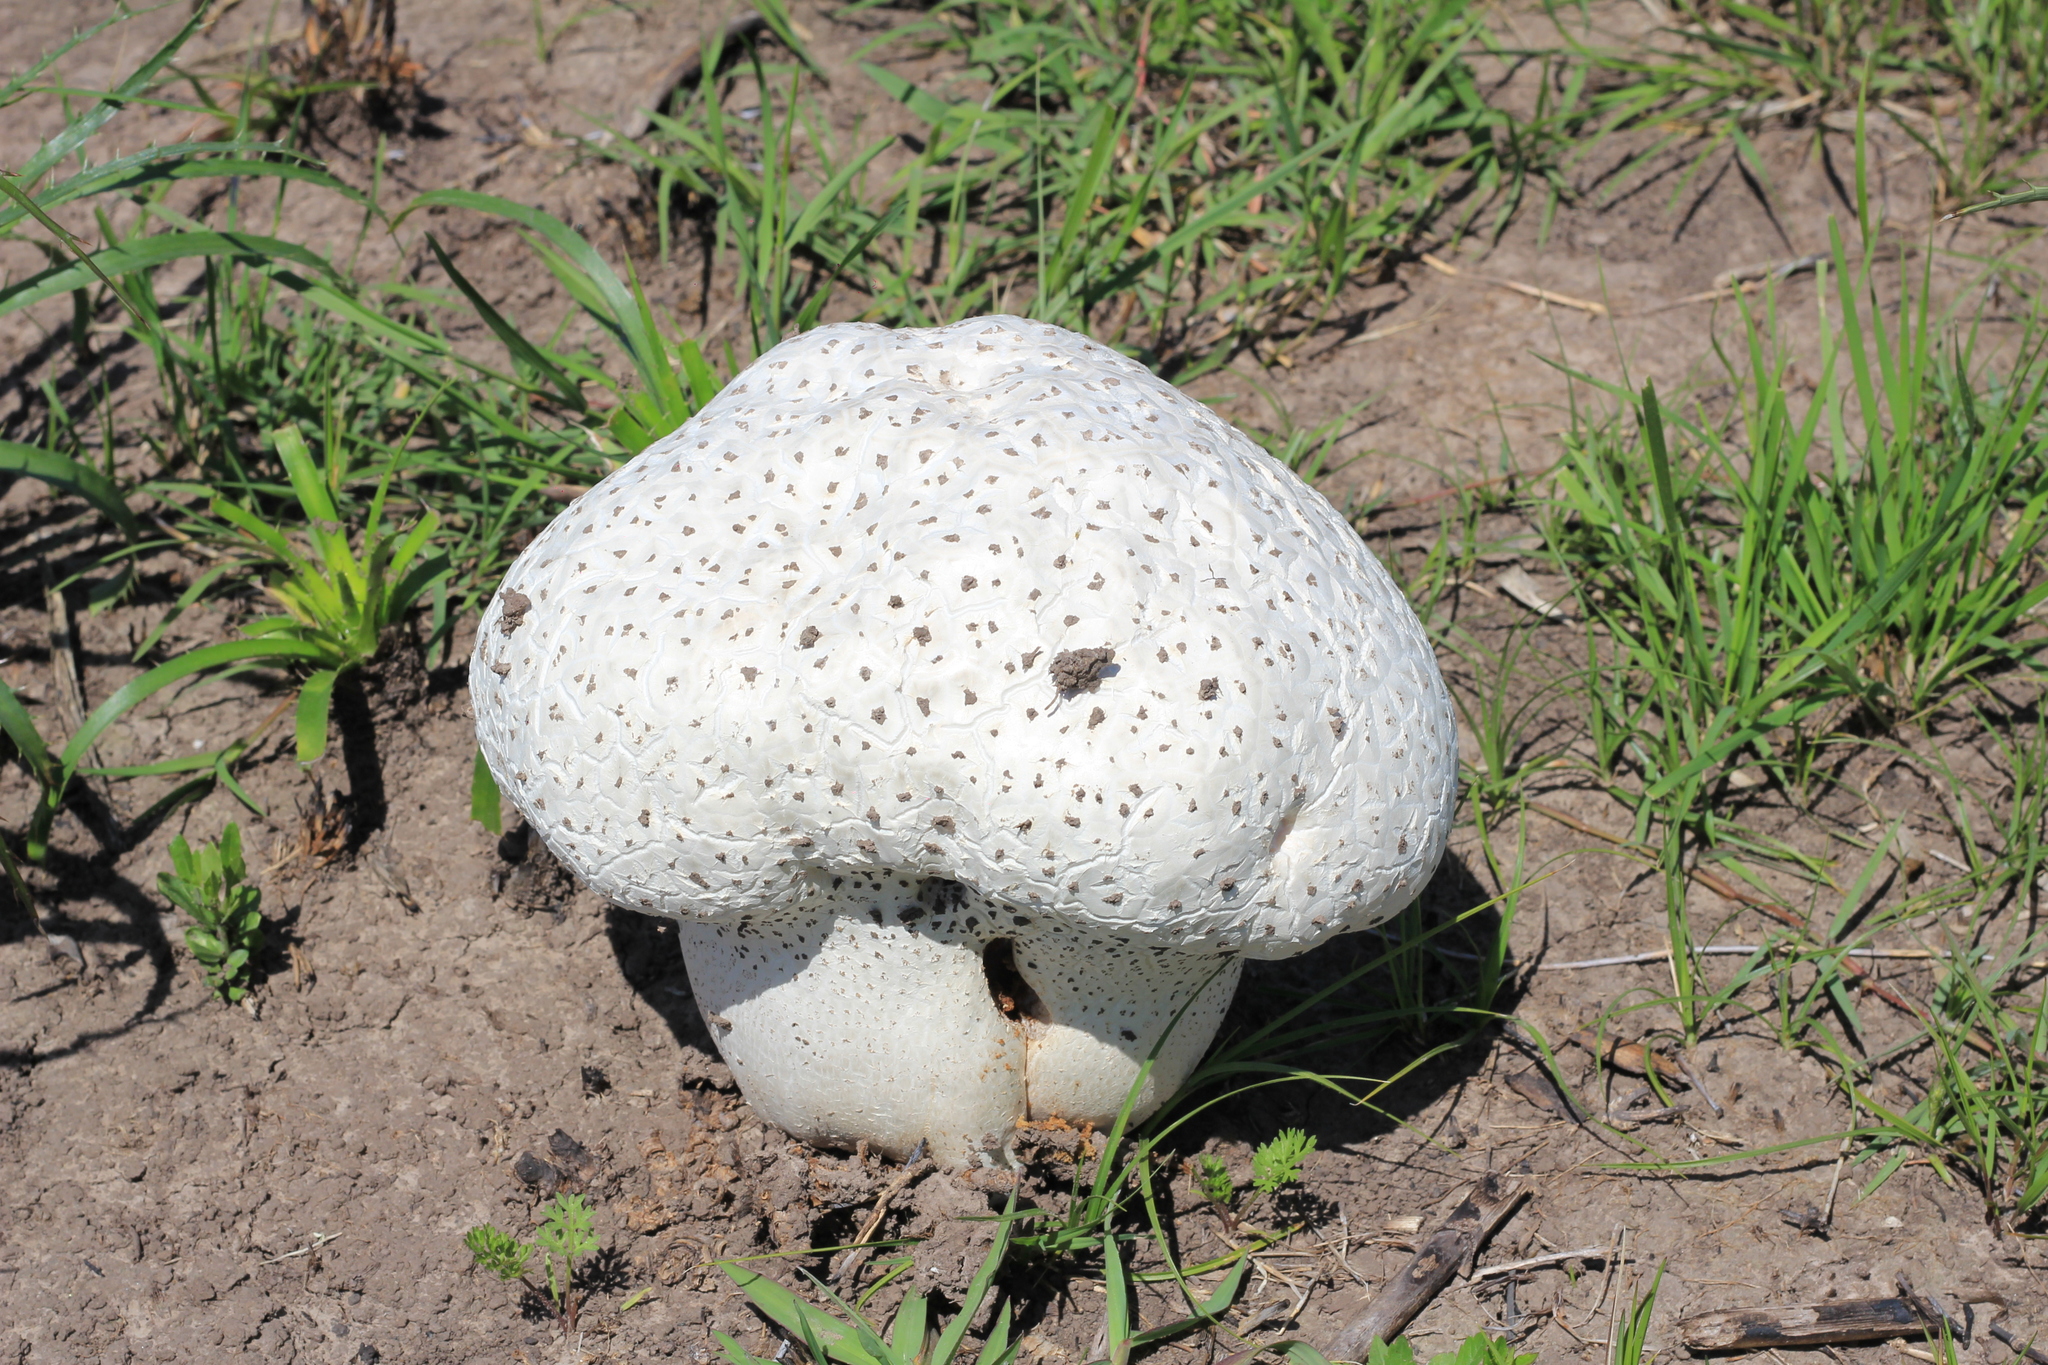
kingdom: Fungi
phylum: Basidiomycota
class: Agaricomycetes
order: Agaricales
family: Lycoperdaceae
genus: Bovistella
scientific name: Bovistella utriformis
